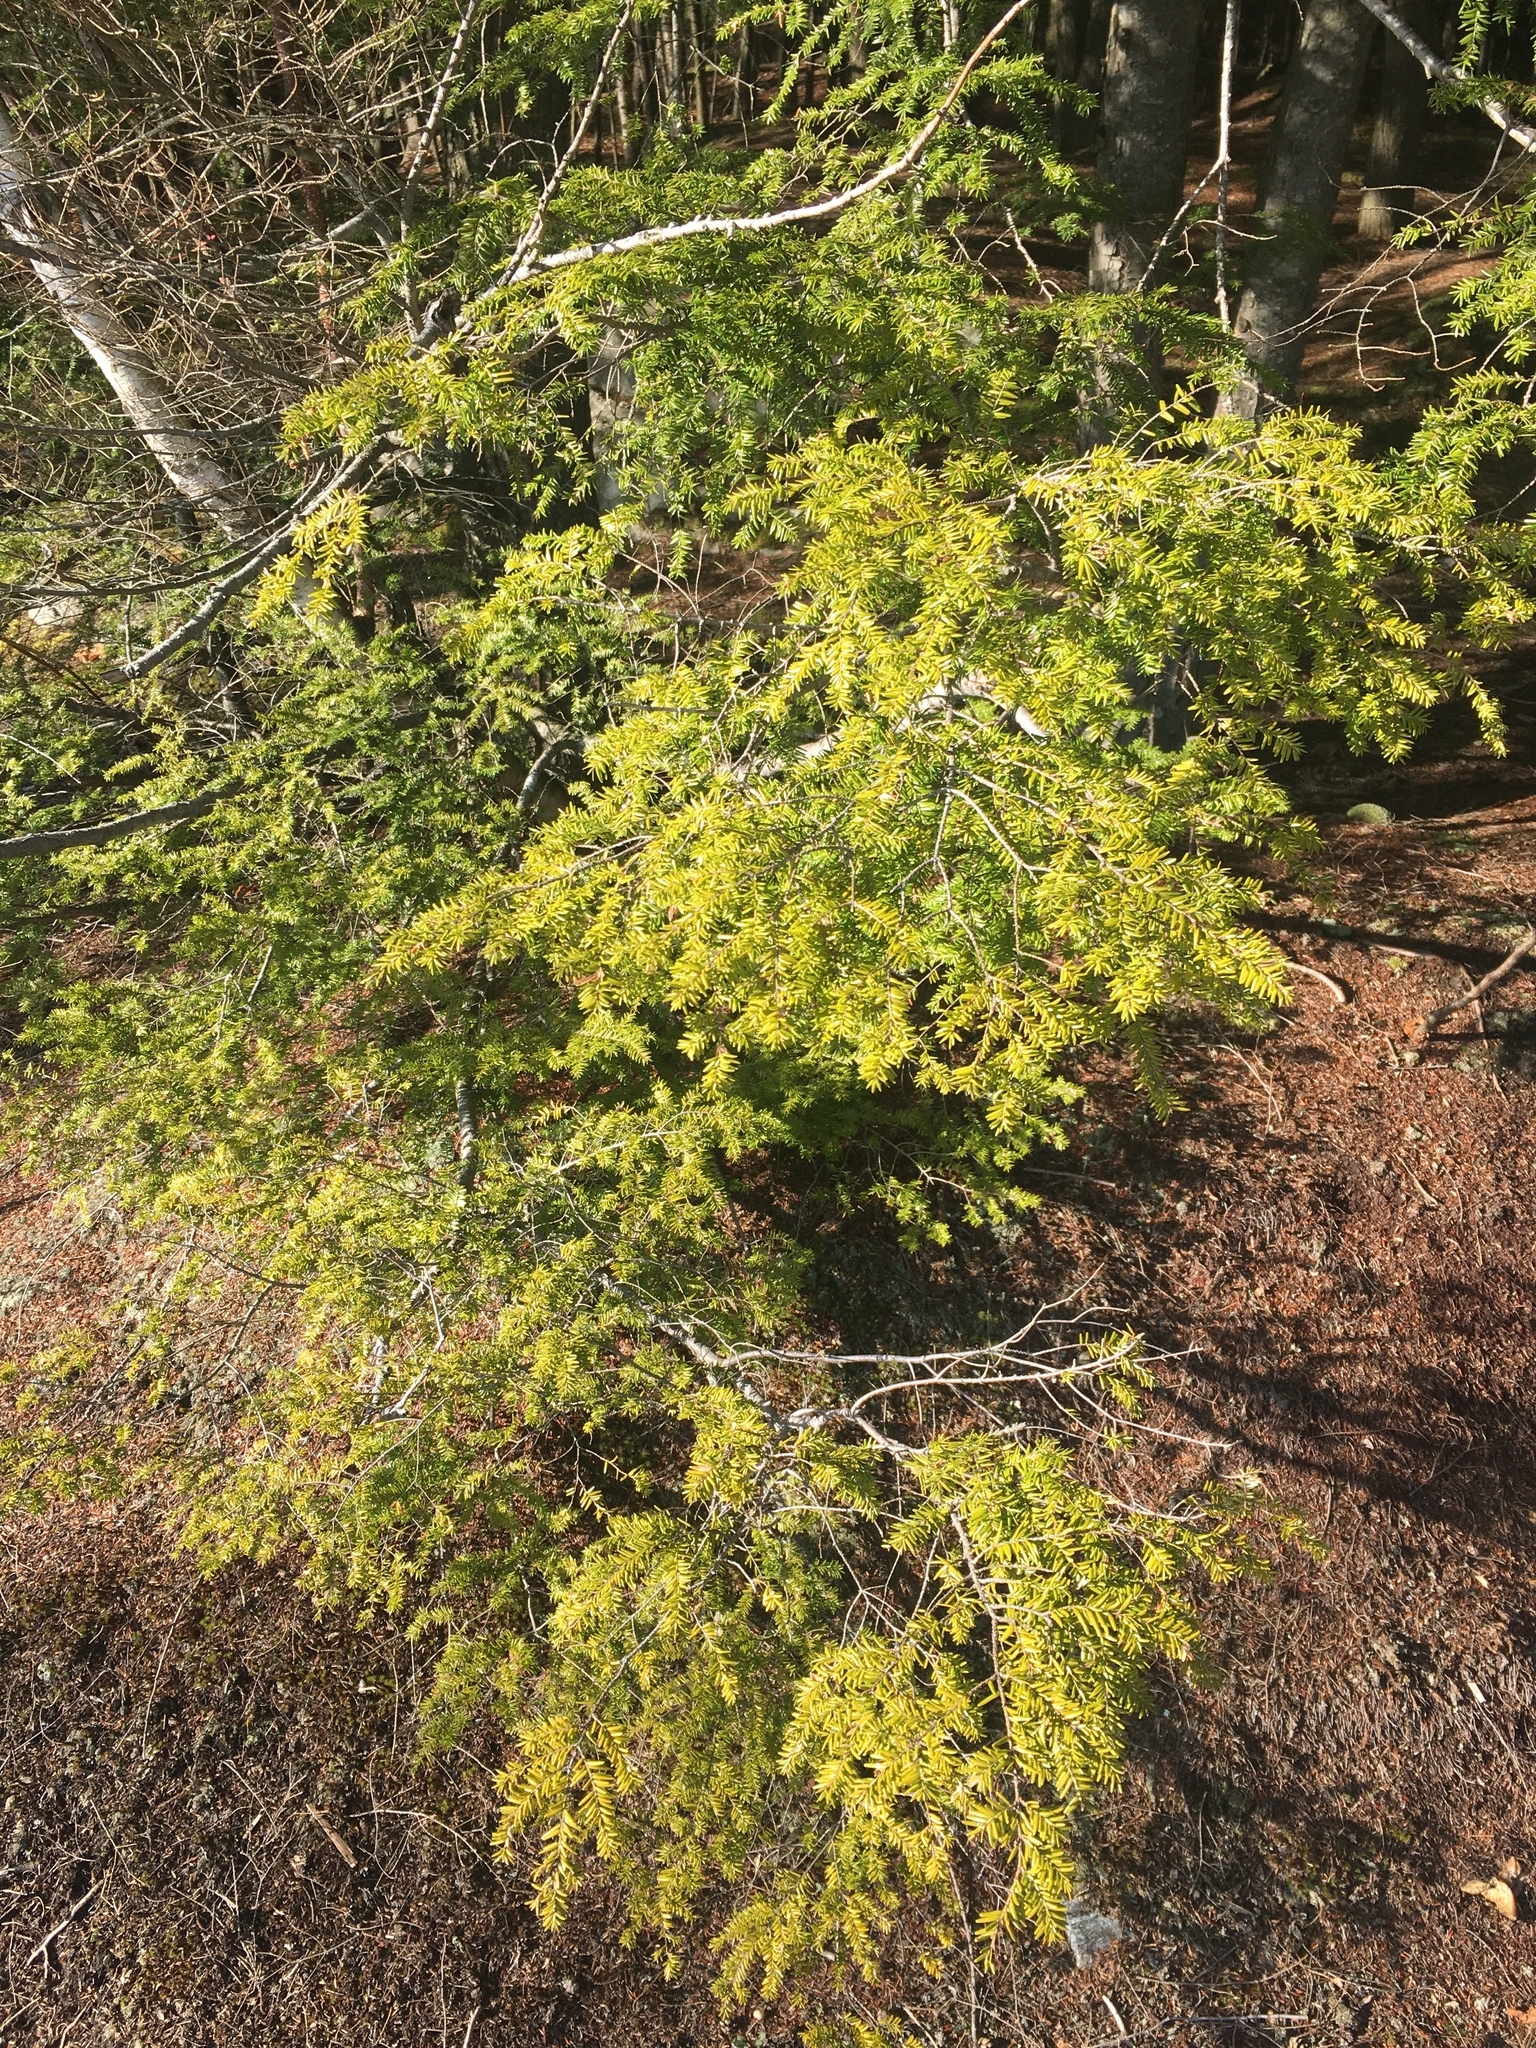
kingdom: Plantae
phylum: Tracheophyta
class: Pinopsida
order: Pinales
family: Pinaceae
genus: Tsuga
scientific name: Tsuga canadensis
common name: Eastern hemlock
